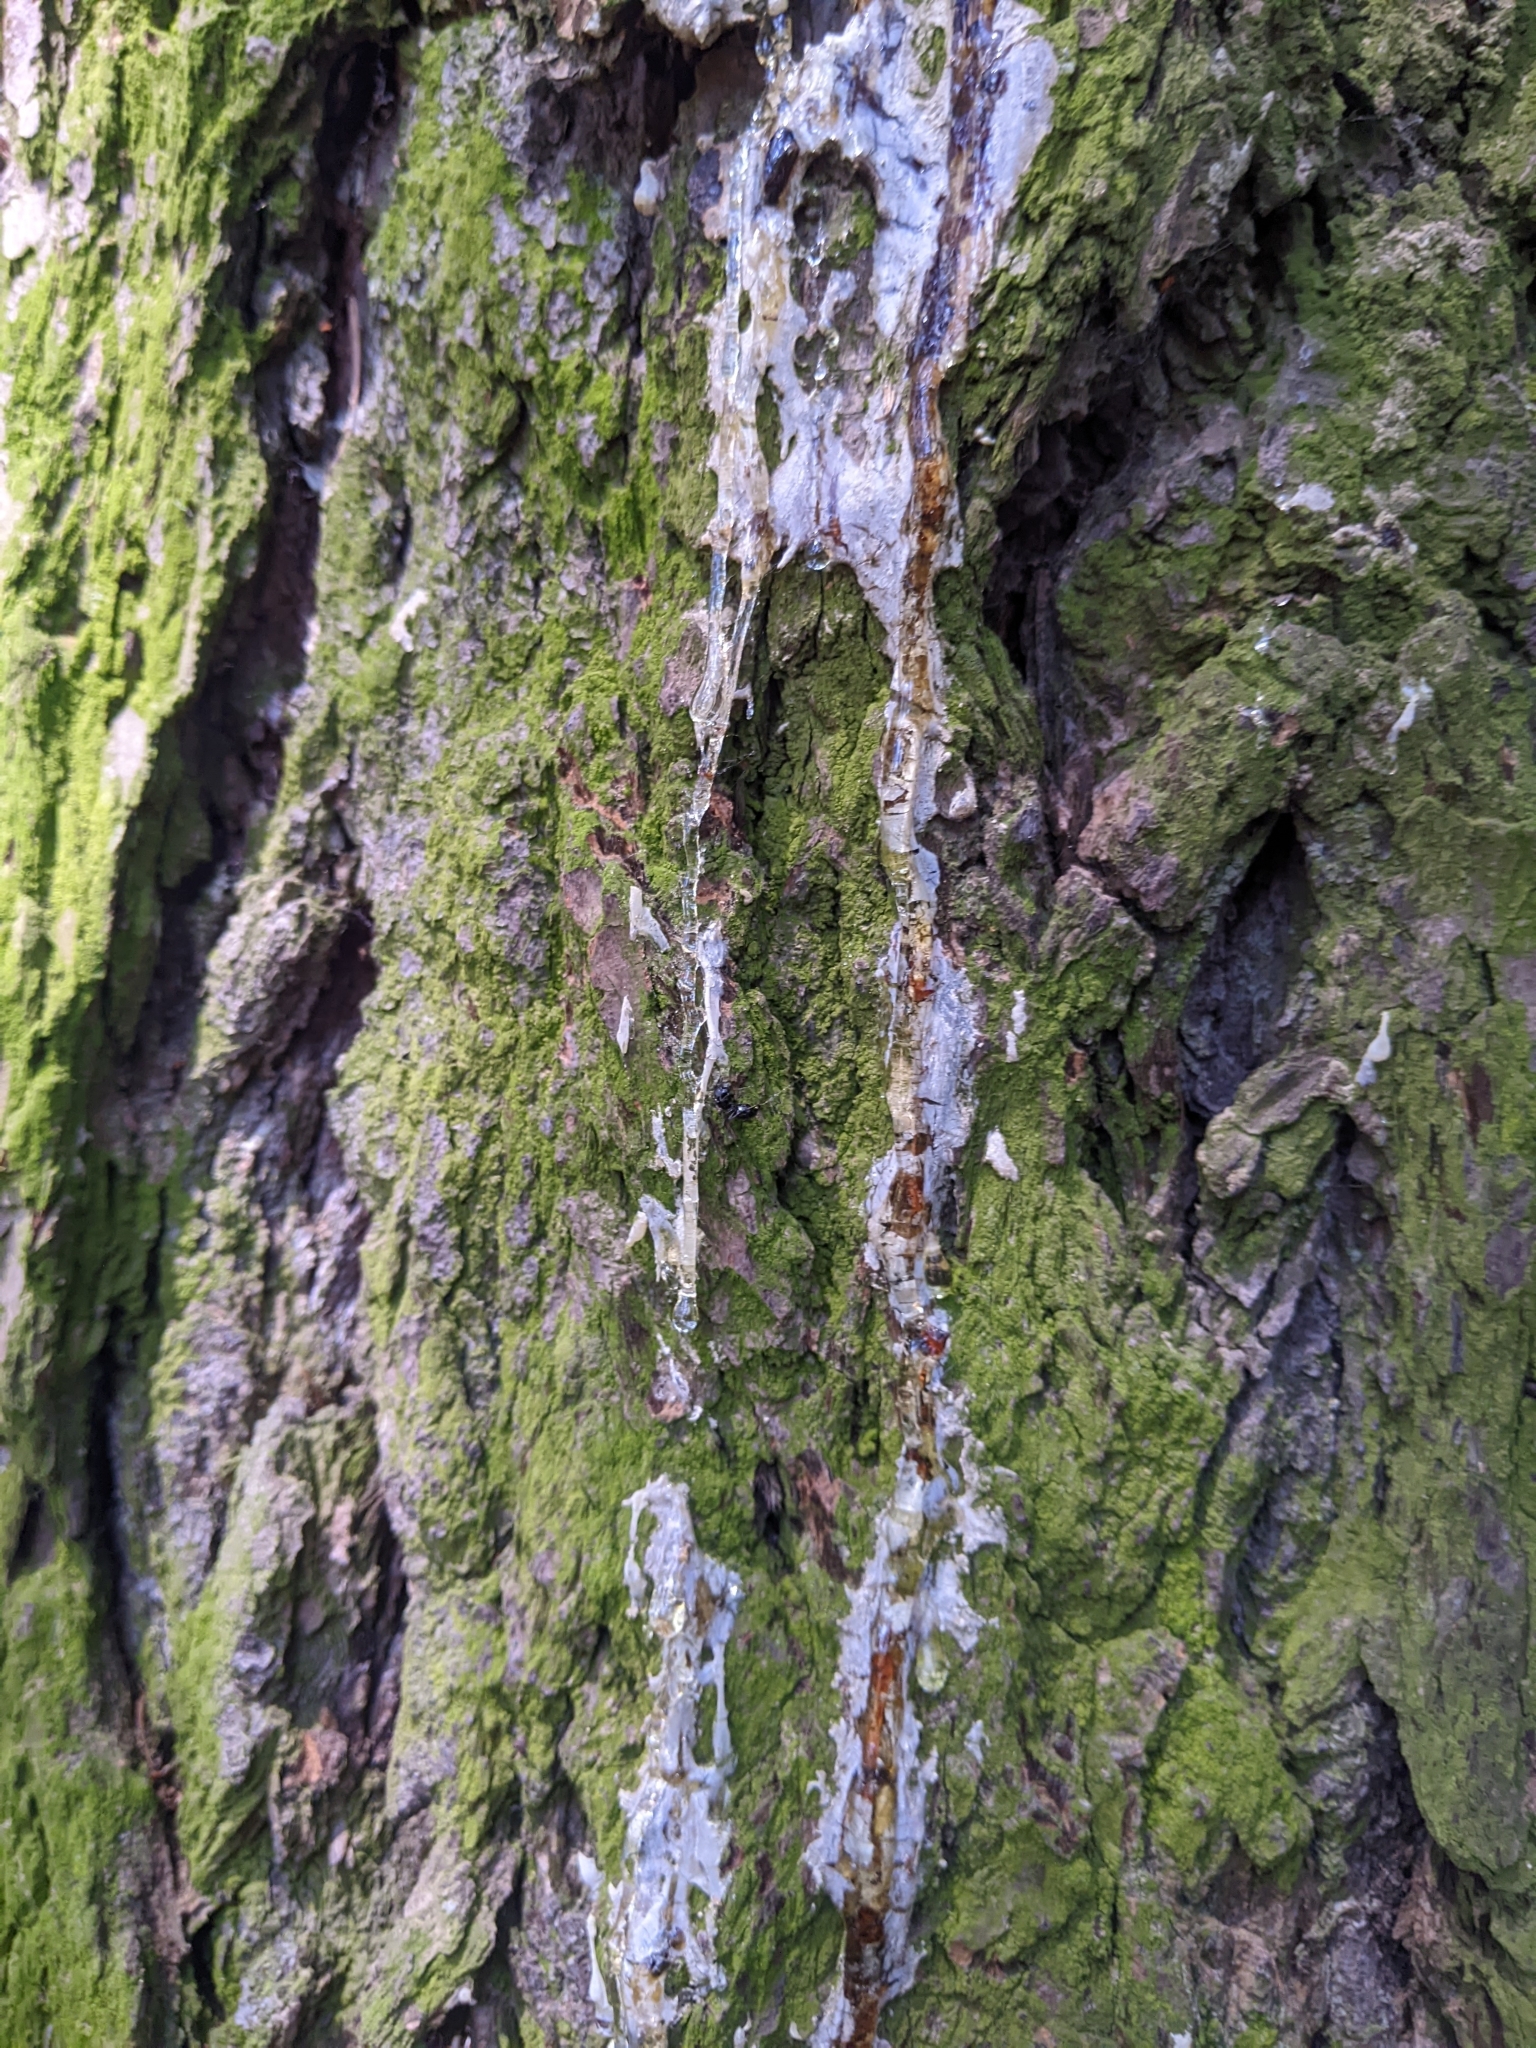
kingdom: Animalia
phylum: Arthropoda
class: Insecta
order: Hymenoptera
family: Formicidae
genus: Camponotus
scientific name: Camponotus
